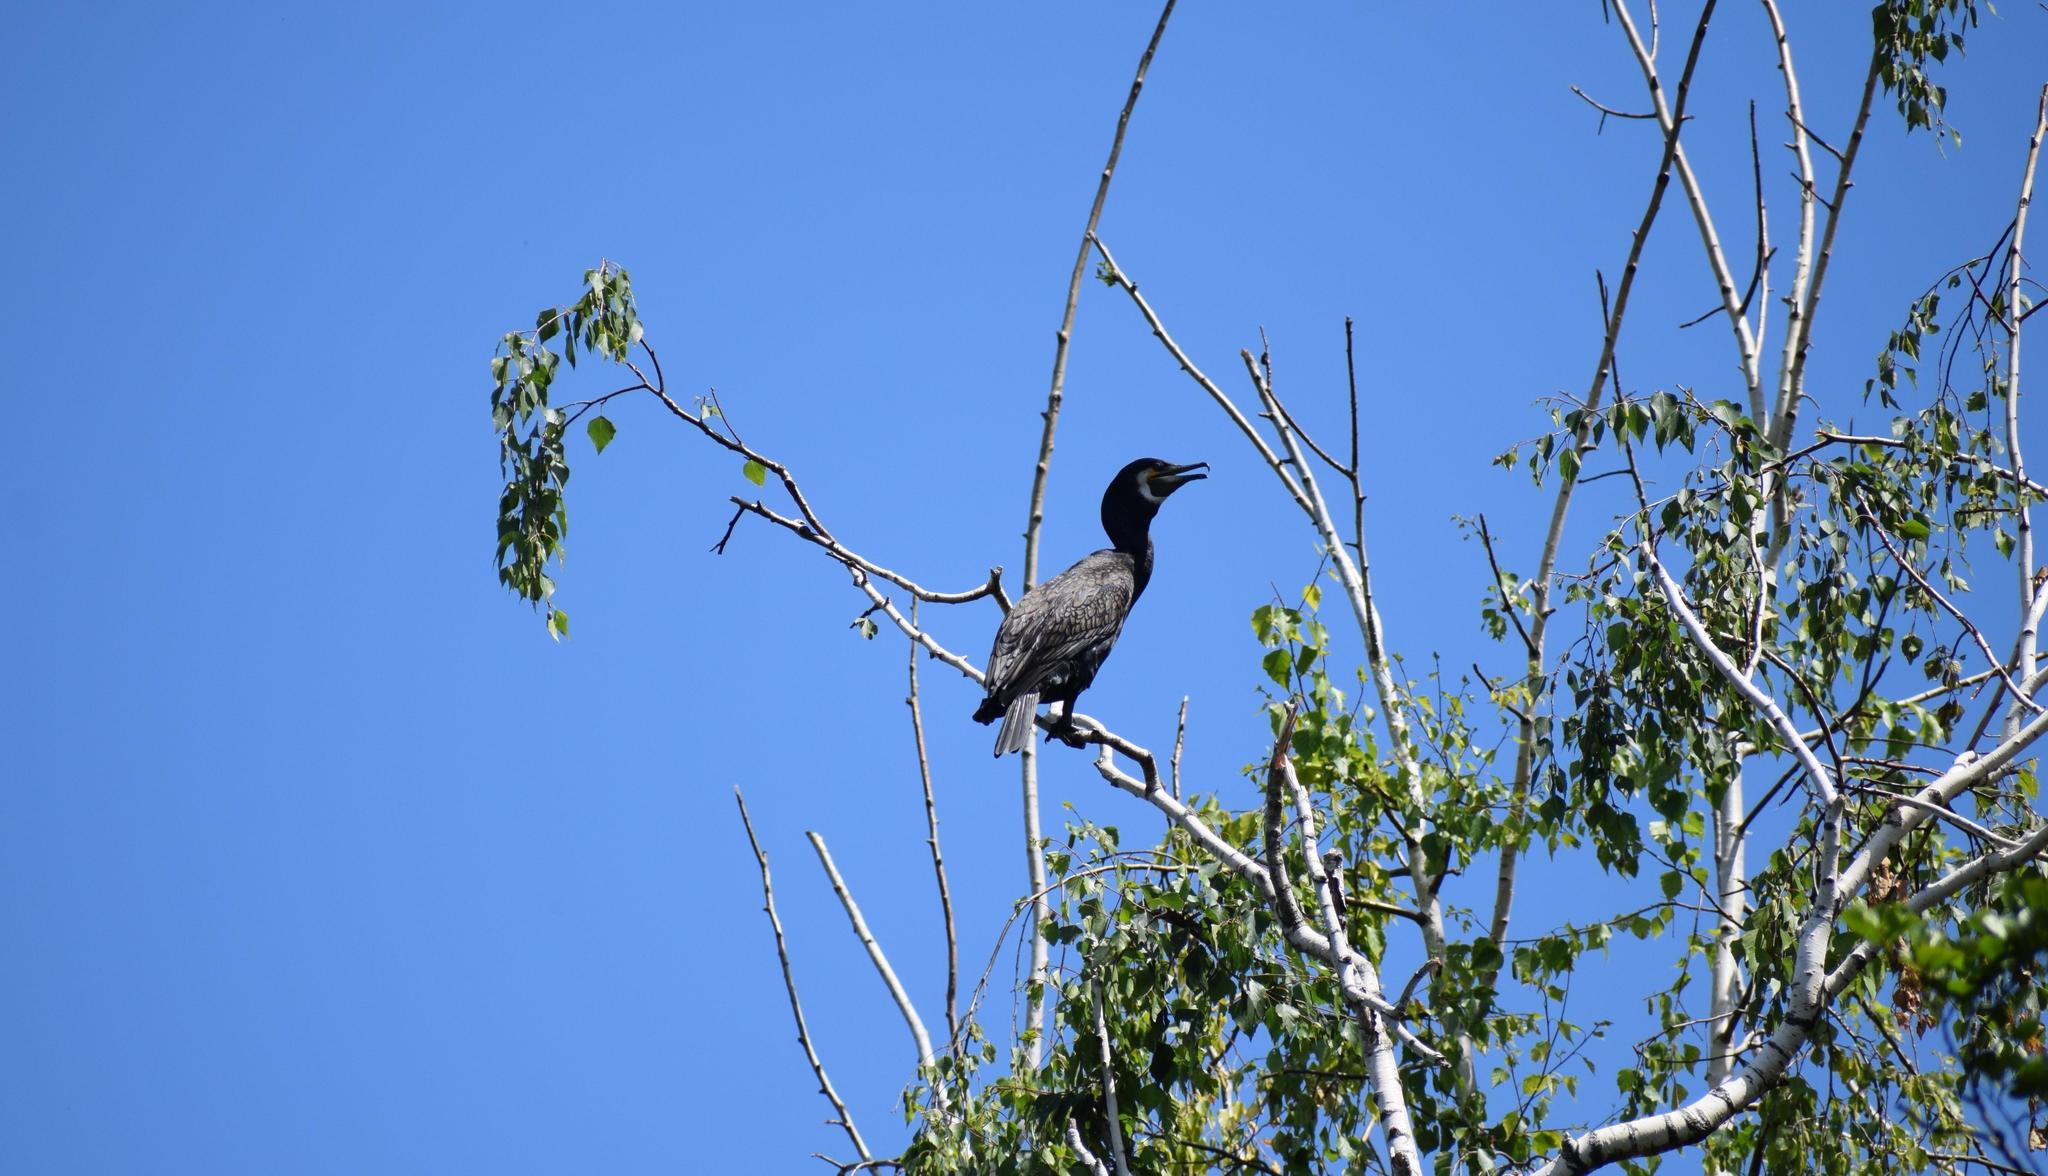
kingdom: Animalia
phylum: Chordata
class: Aves
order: Suliformes
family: Phalacrocoracidae
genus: Phalacrocorax
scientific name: Phalacrocorax carbo
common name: Great cormorant
